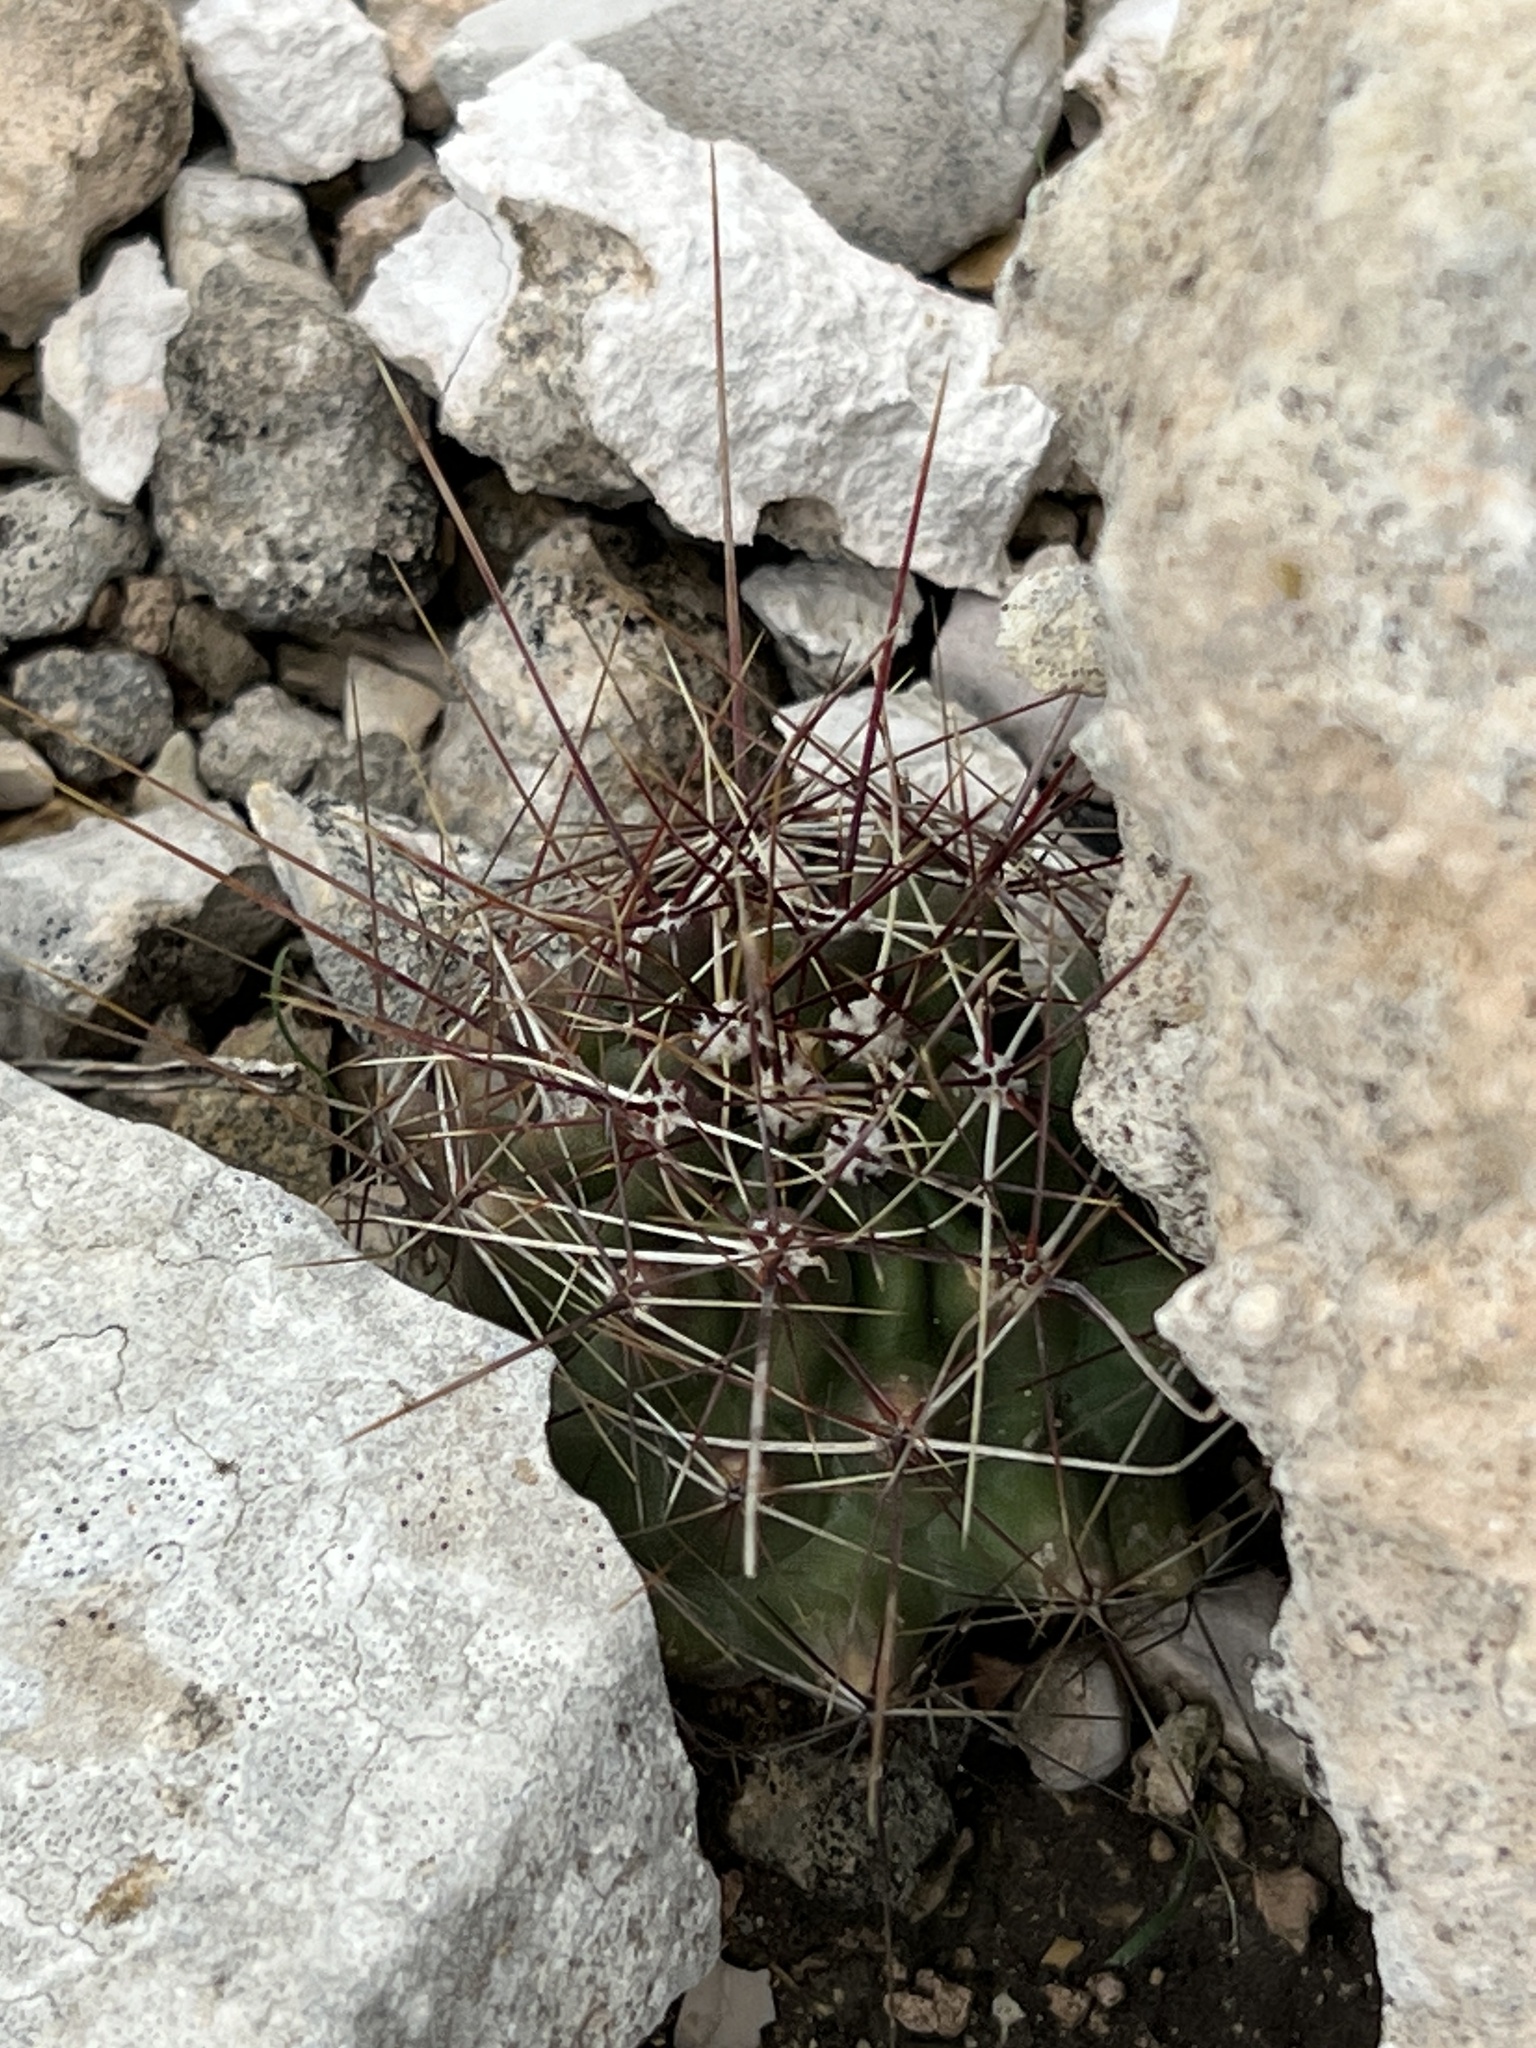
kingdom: Plantae
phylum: Tracheophyta
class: Magnoliopsida
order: Caryophyllales
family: Cactaceae
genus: Bisnaga
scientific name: Bisnaga hamatacantha
